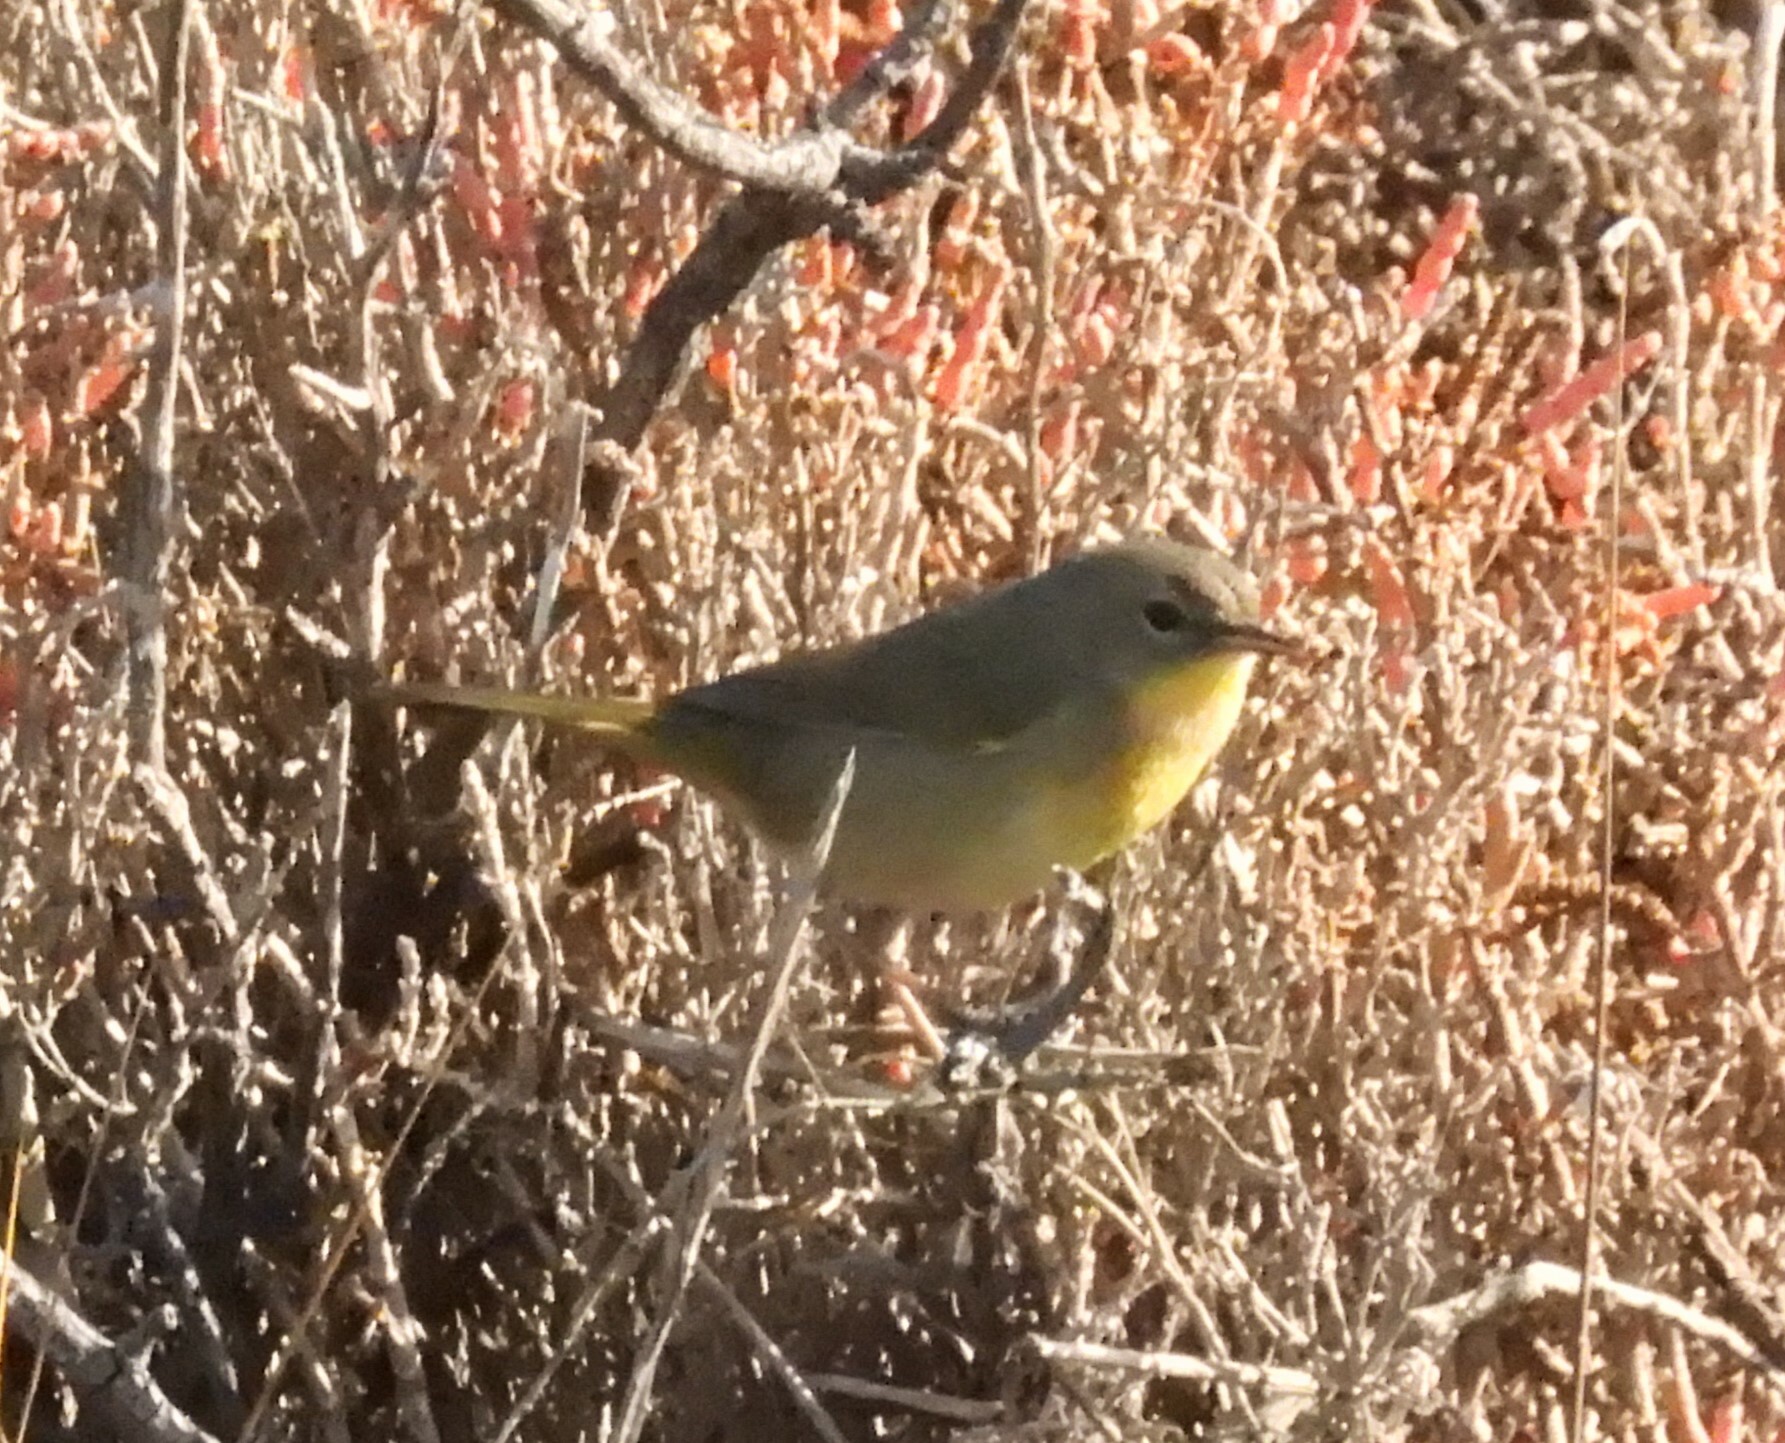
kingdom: Animalia
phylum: Chordata
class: Aves
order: Passeriformes
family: Parulidae
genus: Geothlypis
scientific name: Geothlypis trichas
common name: Common yellowthroat
